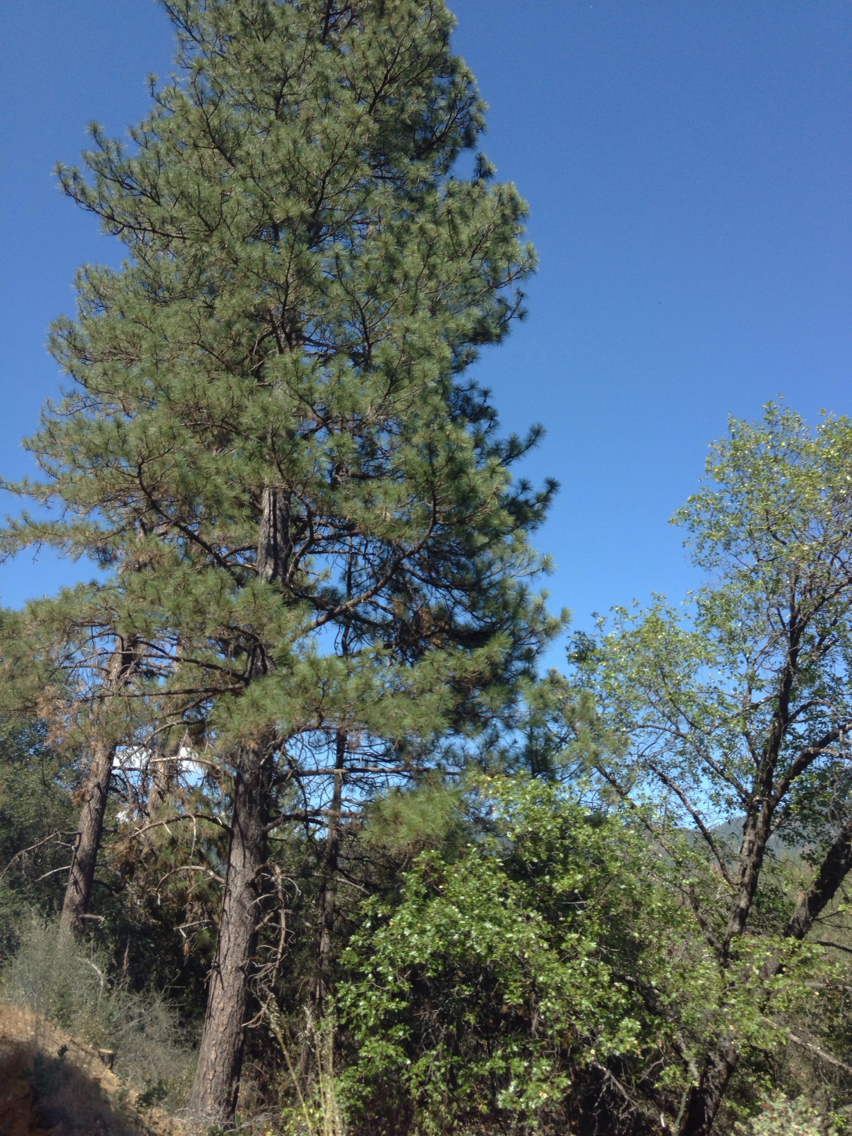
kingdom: Plantae
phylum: Tracheophyta
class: Pinopsida
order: Pinales
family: Pinaceae
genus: Pinus
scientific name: Pinus ponderosa
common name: Western yellow-pine
